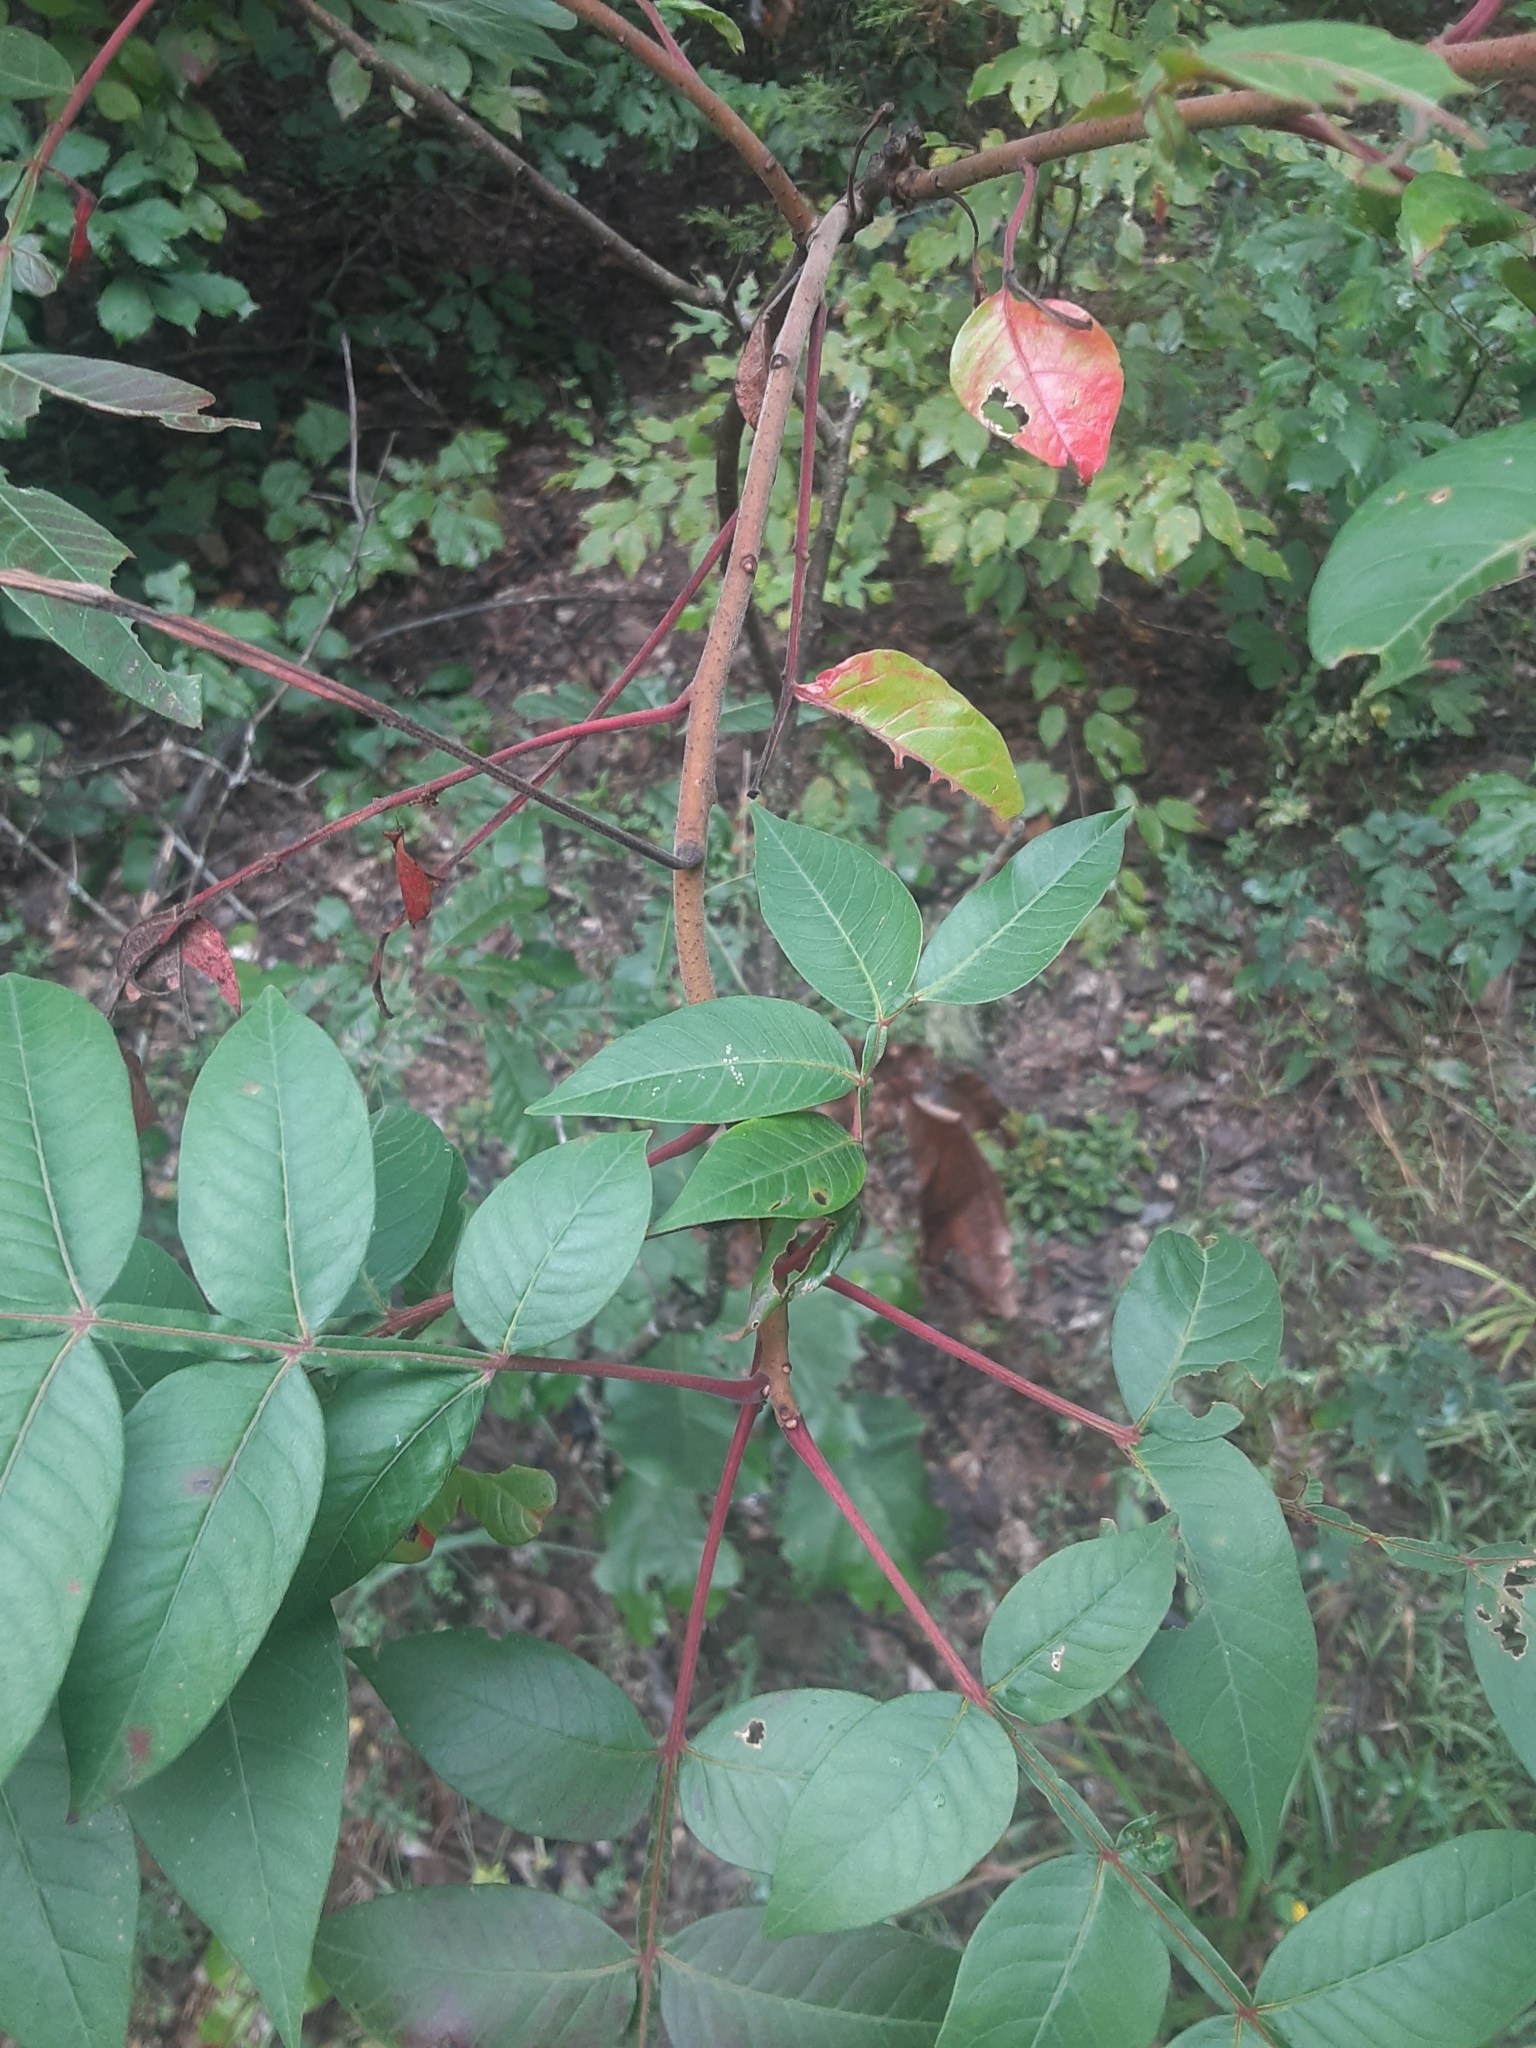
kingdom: Plantae
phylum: Tracheophyta
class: Magnoliopsida
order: Sapindales
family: Anacardiaceae
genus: Rhus
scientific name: Rhus copallina
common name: Shining sumac
